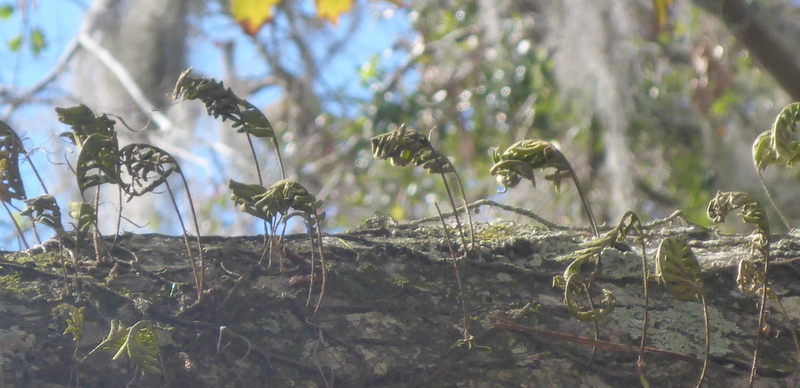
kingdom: Plantae
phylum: Tracheophyta
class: Polypodiopsida
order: Polypodiales
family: Polypodiaceae
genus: Pleopeltis
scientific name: Pleopeltis michauxiana
